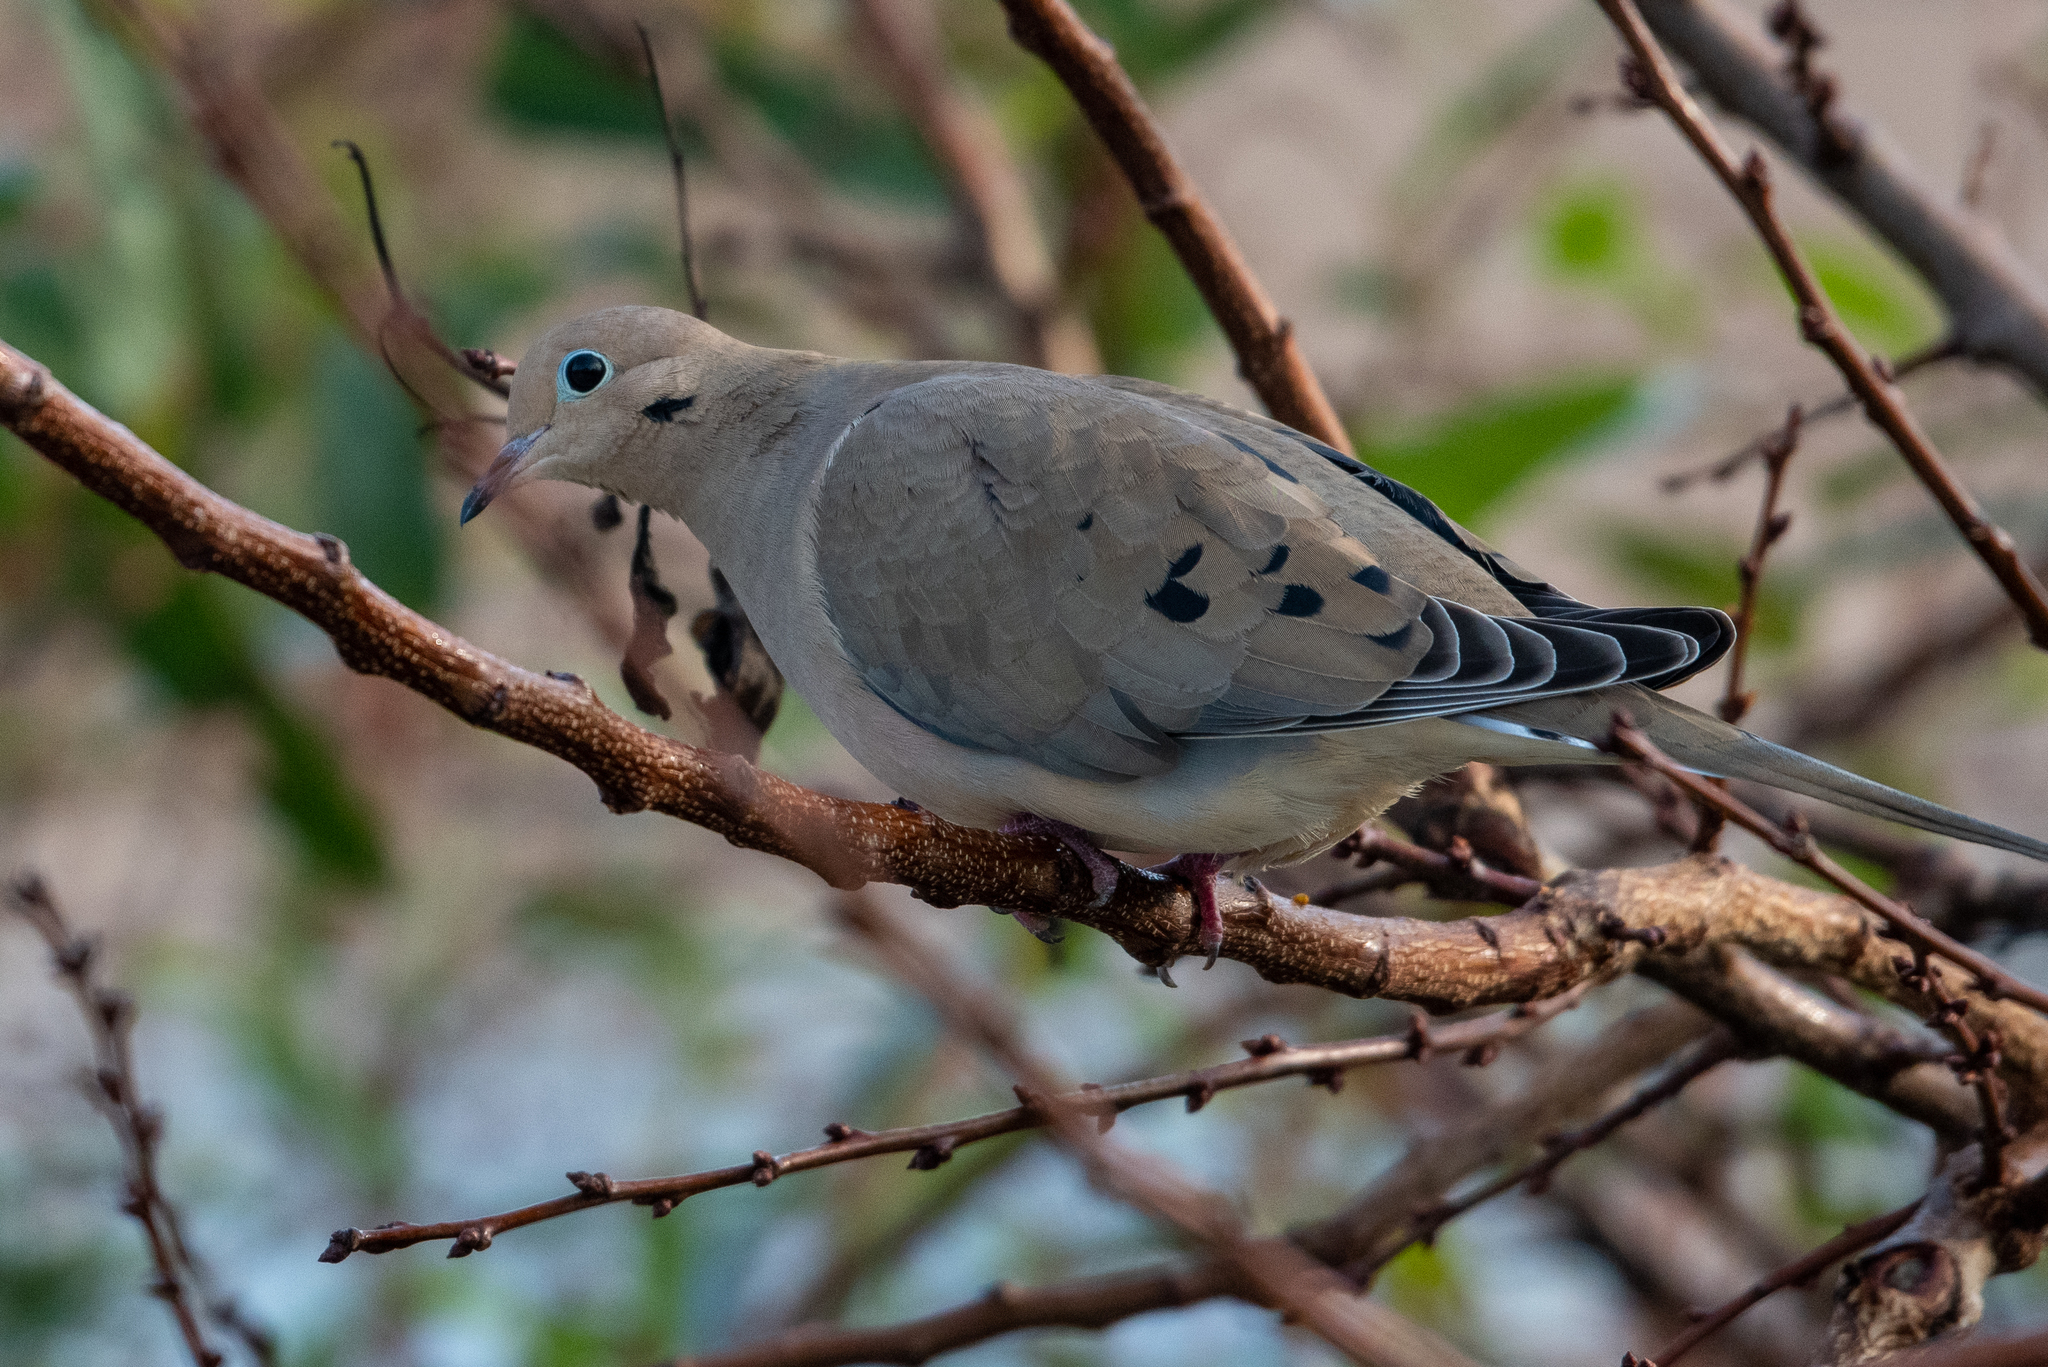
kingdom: Animalia
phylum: Chordata
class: Aves
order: Columbiformes
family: Columbidae
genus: Zenaida
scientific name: Zenaida macroura
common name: Mourning dove
